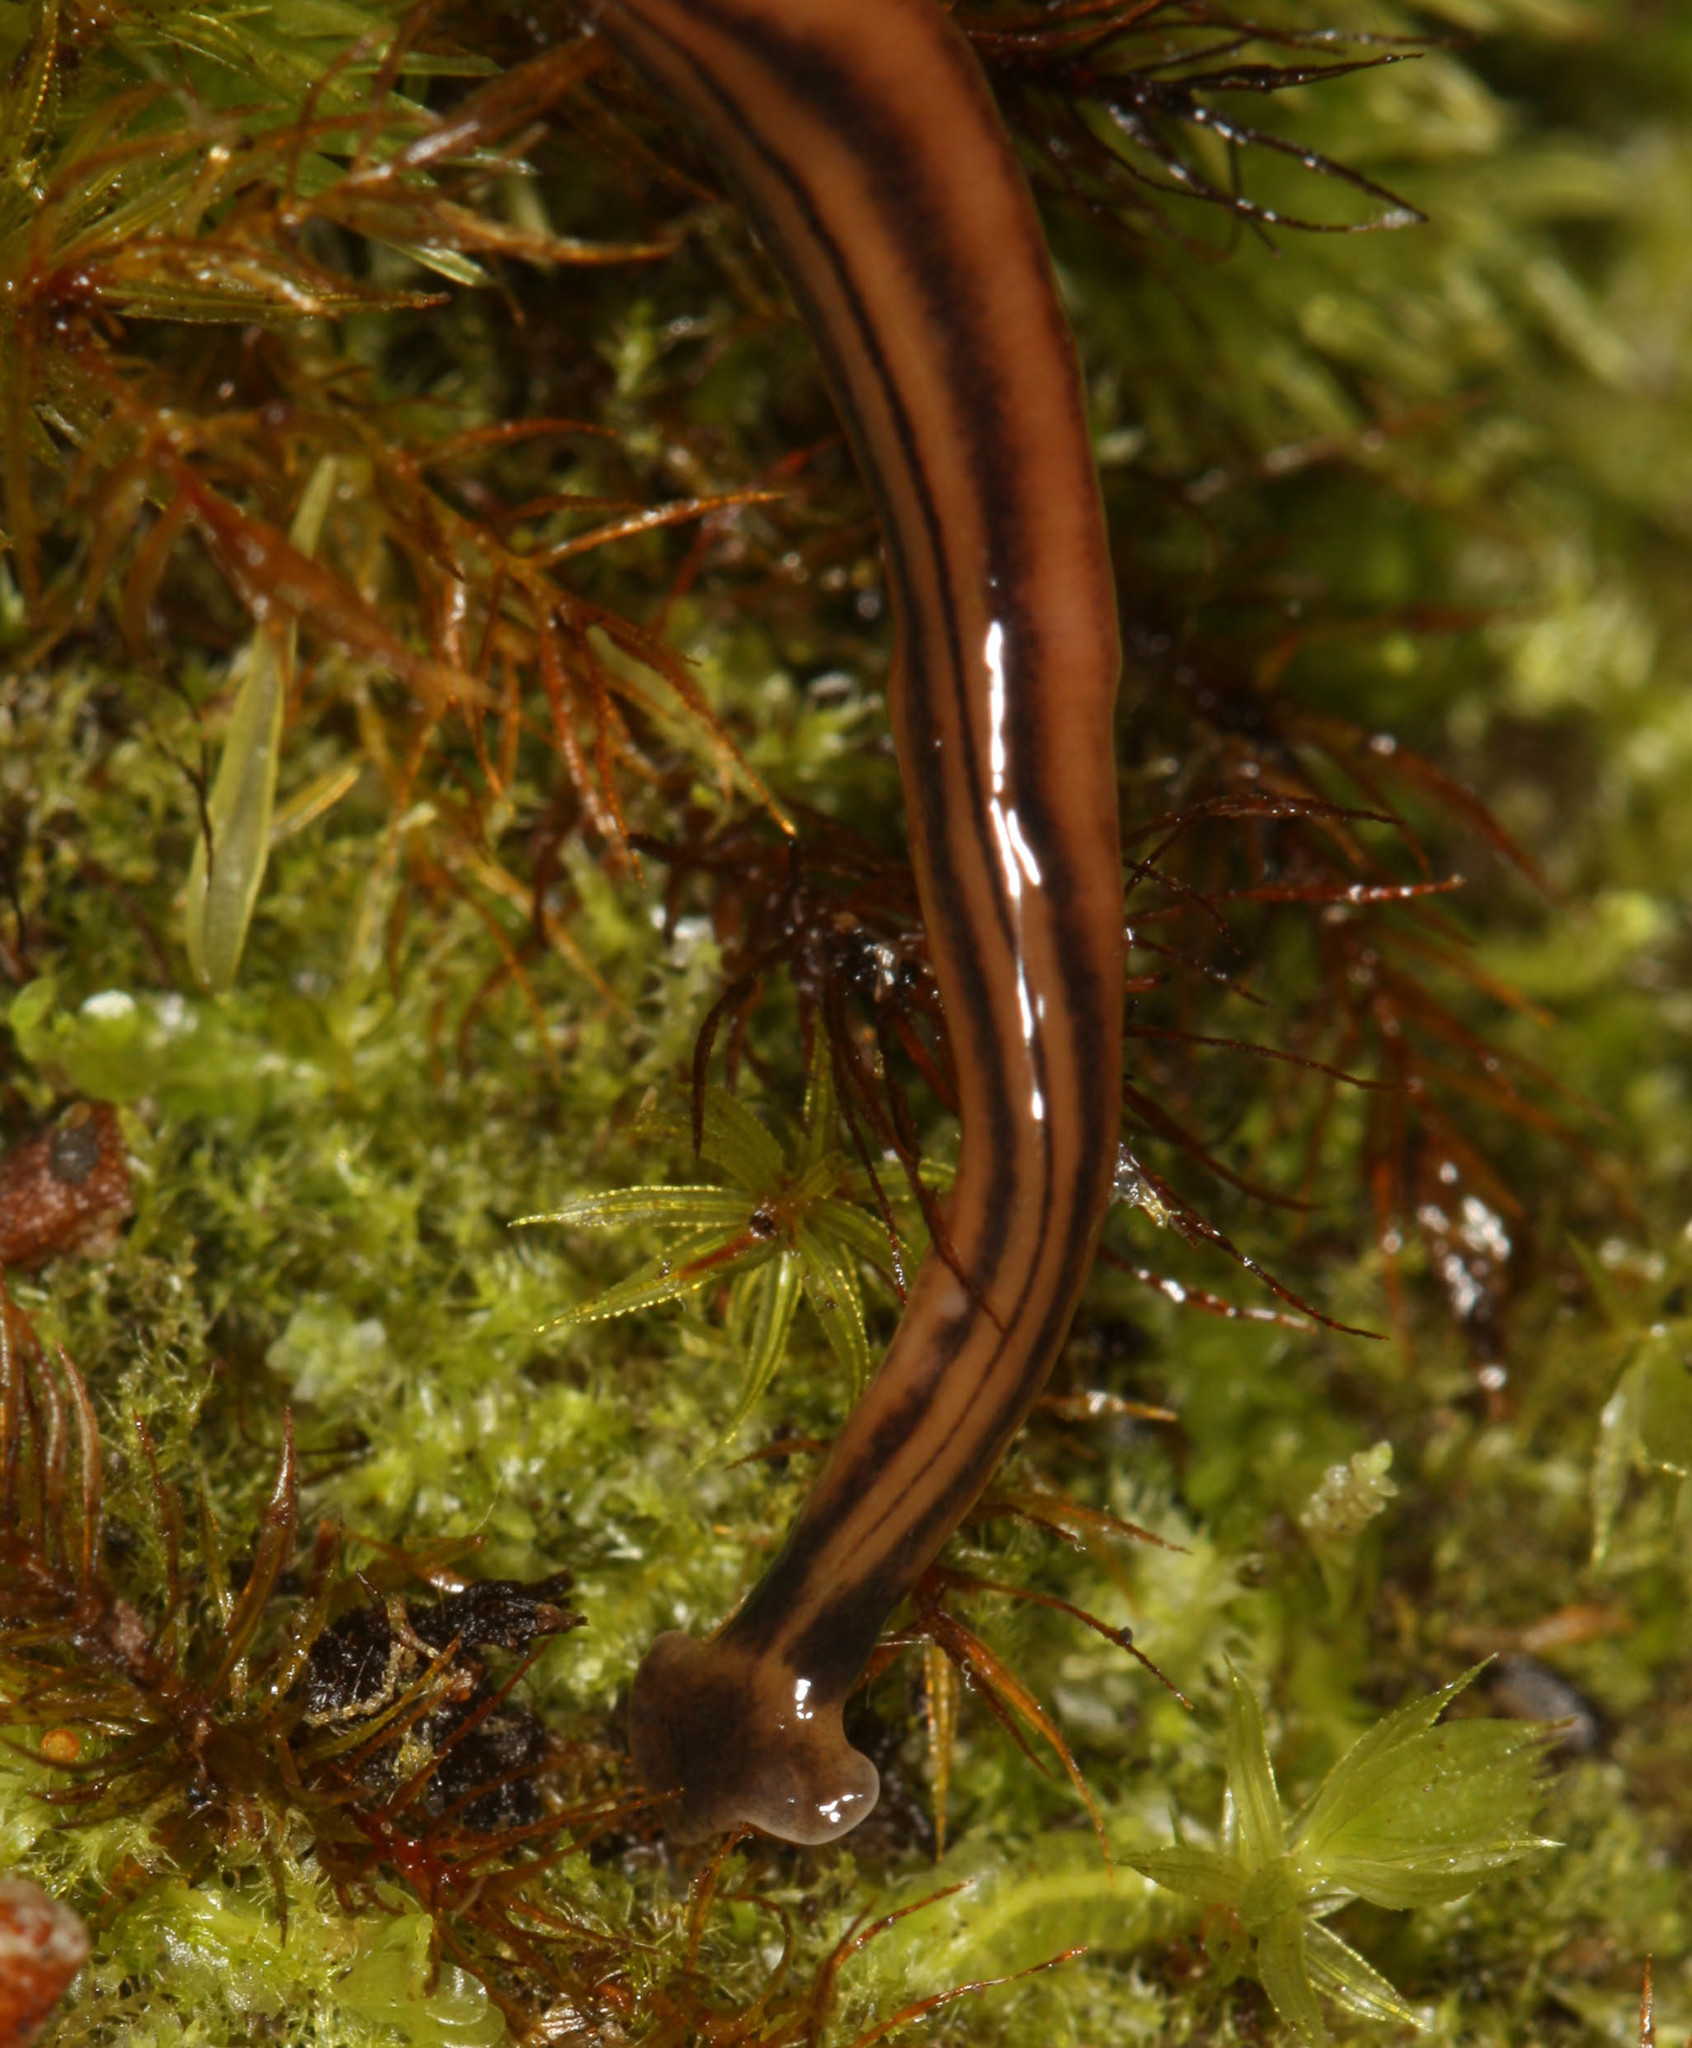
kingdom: Animalia
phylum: Platyhelminthes
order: Tricladida
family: Geoplanidae
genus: Bipalium
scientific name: Bipalium kewense
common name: Hammerhead flatworm
